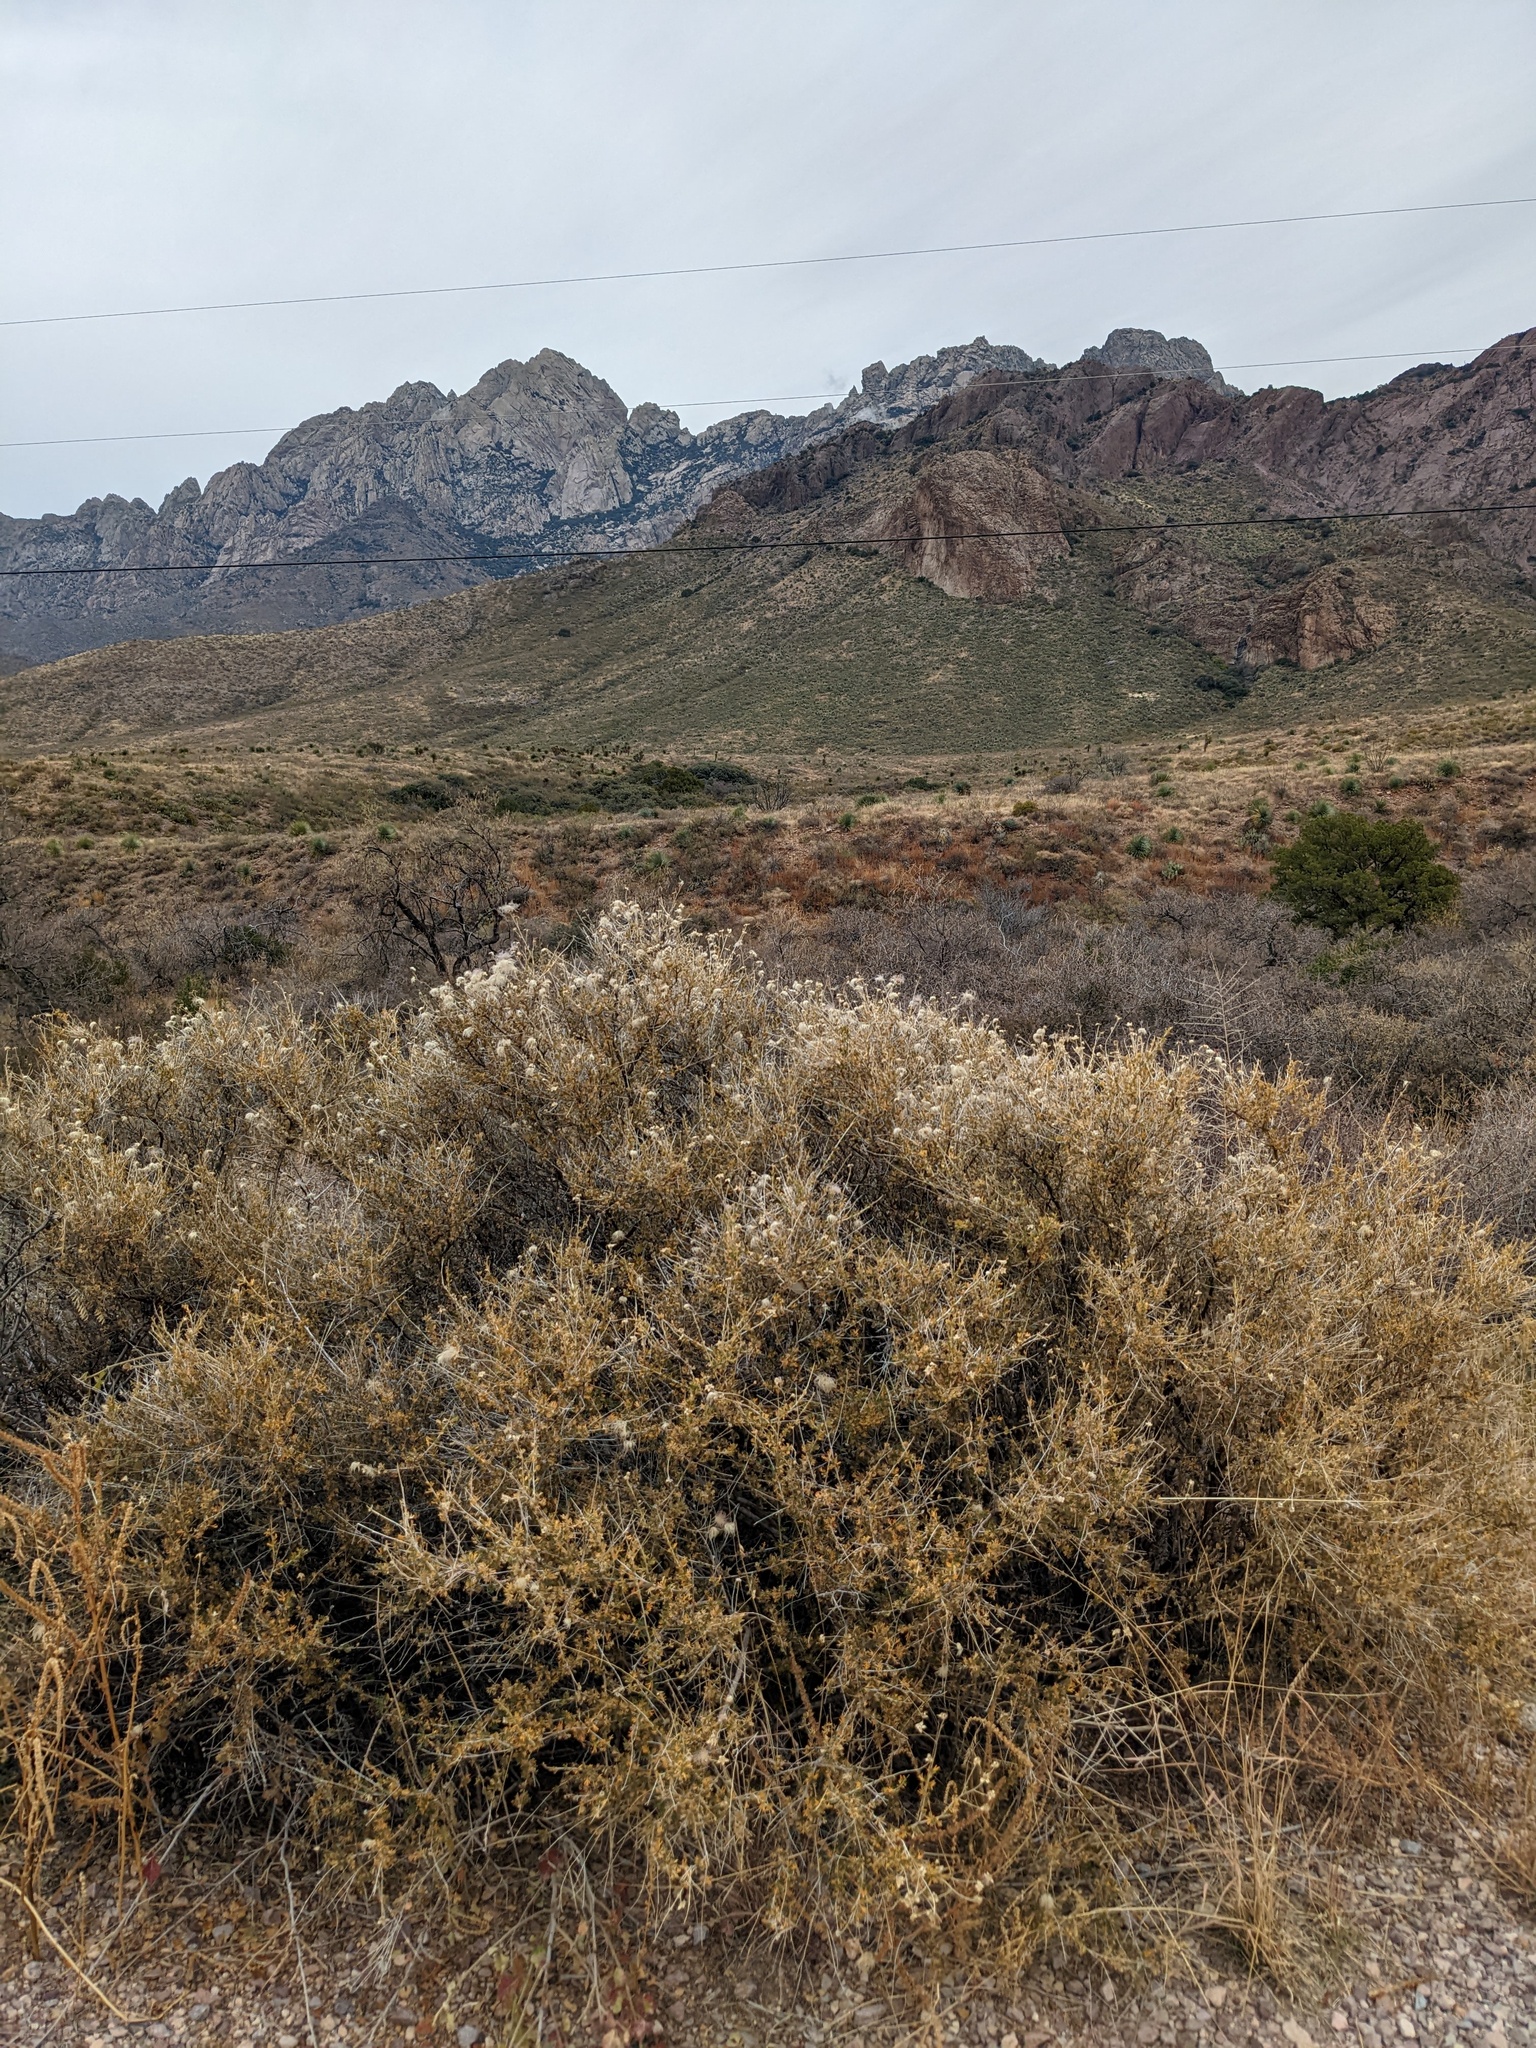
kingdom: Plantae
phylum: Tracheophyta
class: Magnoliopsida
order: Rosales
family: Rosaceae
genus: Fallugia
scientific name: Fallugia paradoxa
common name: Apache-plume
